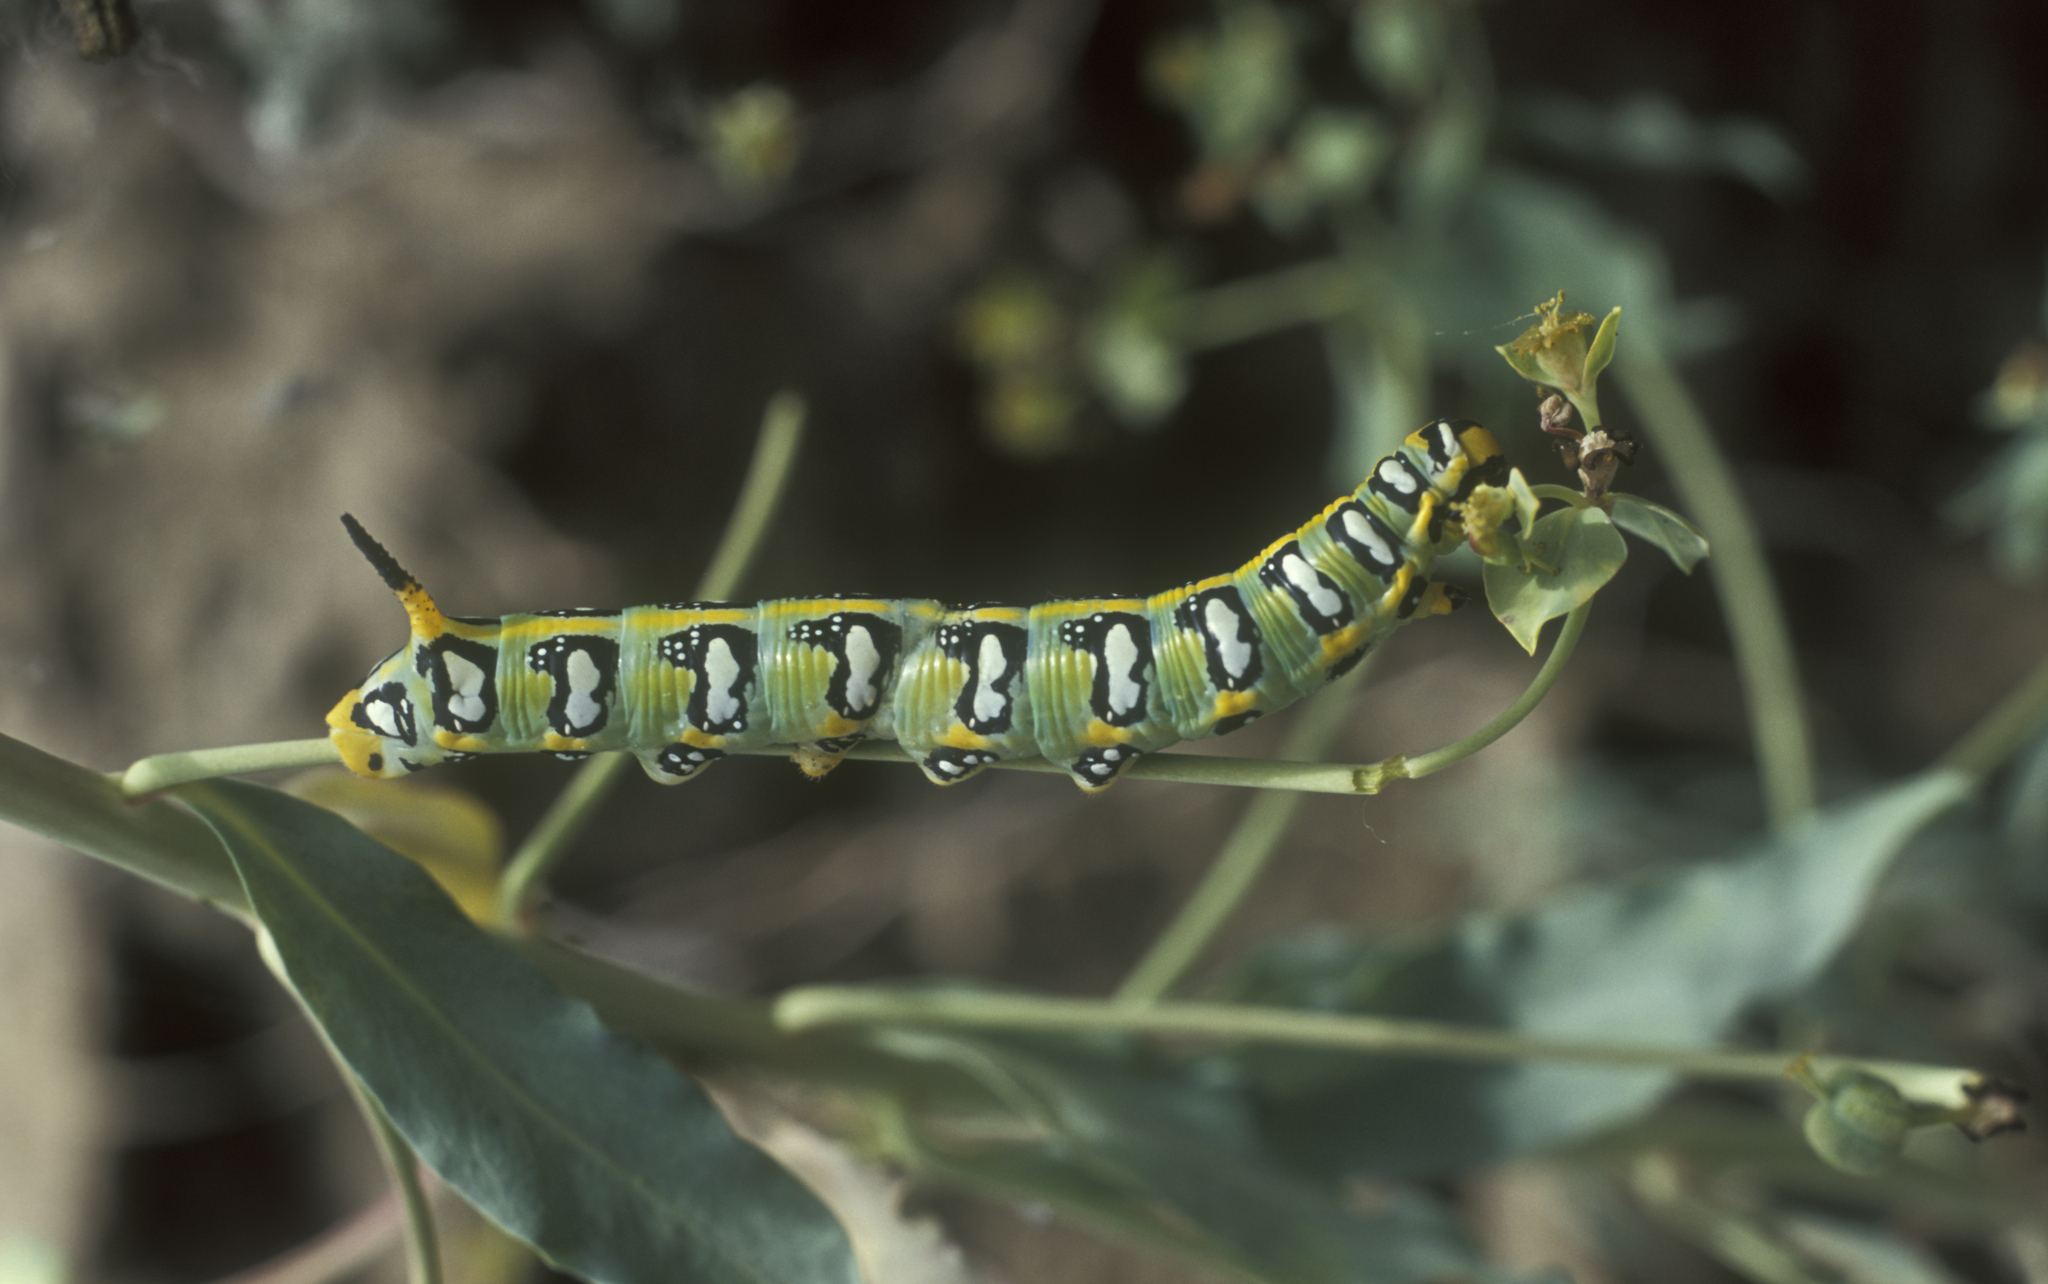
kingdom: Animalia
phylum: Arthropoda
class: Insecta
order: Lepidoptera
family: Sphingidae
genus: Hyles
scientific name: Hyles euphorbiae
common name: Spurge hawk-moth
